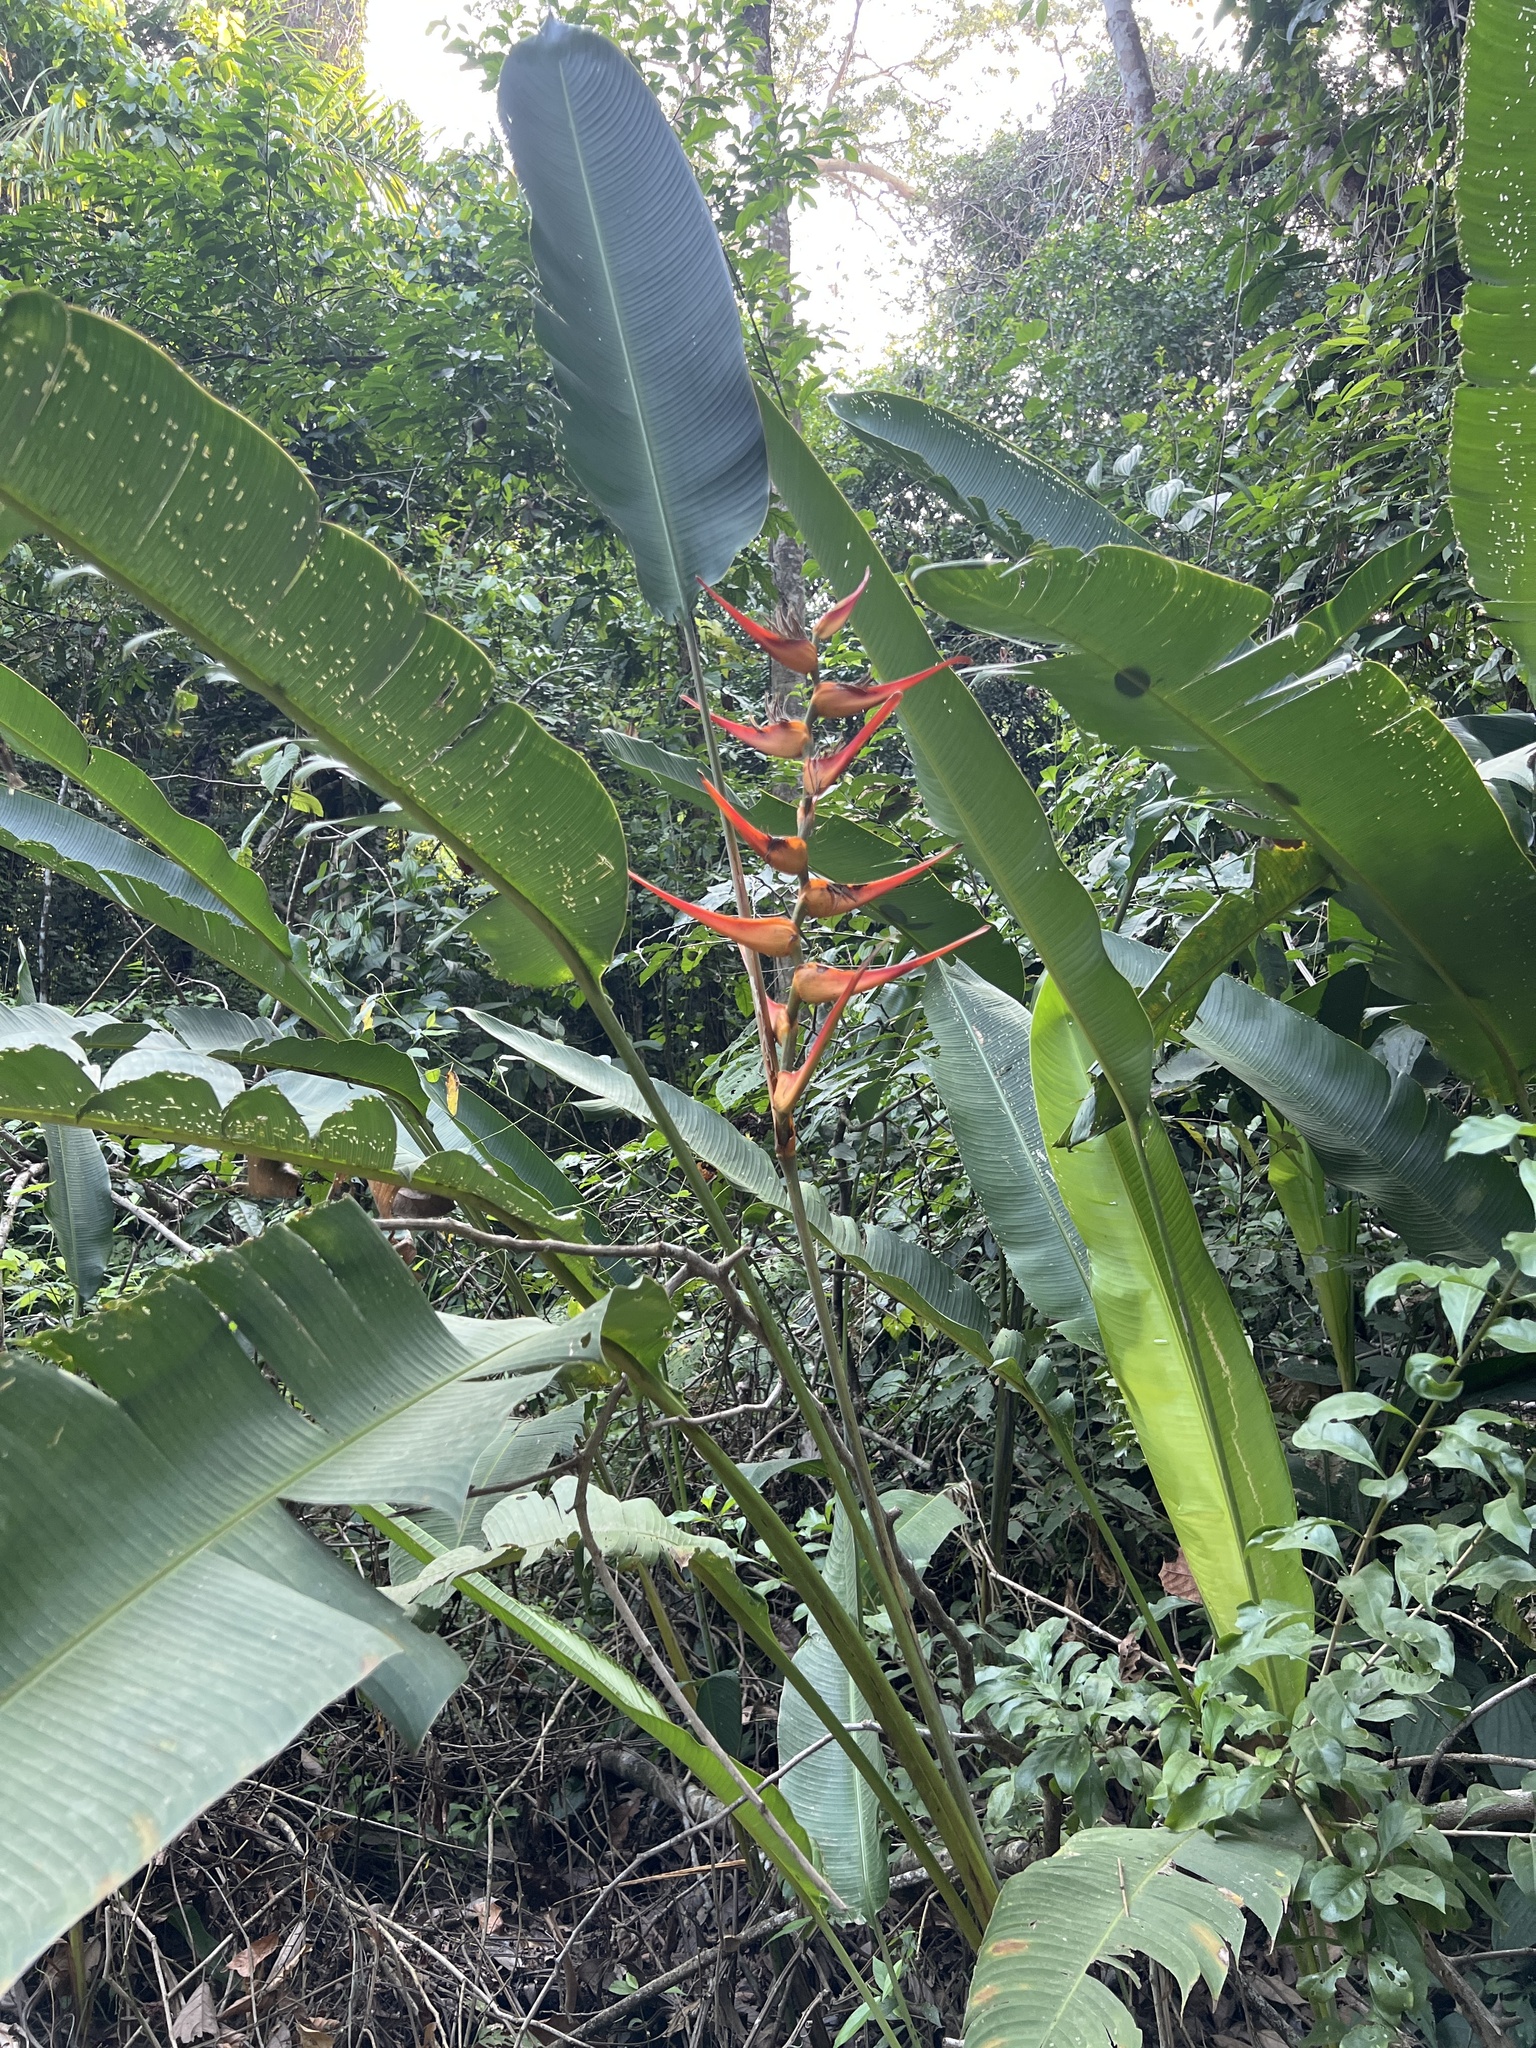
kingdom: Plantae
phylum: Tracheophyta
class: Liliopsida
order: Zingiberales
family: Heliconiaceae
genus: Heliconia
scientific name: Heliconia latispatha
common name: Expanded lobsterclaw
